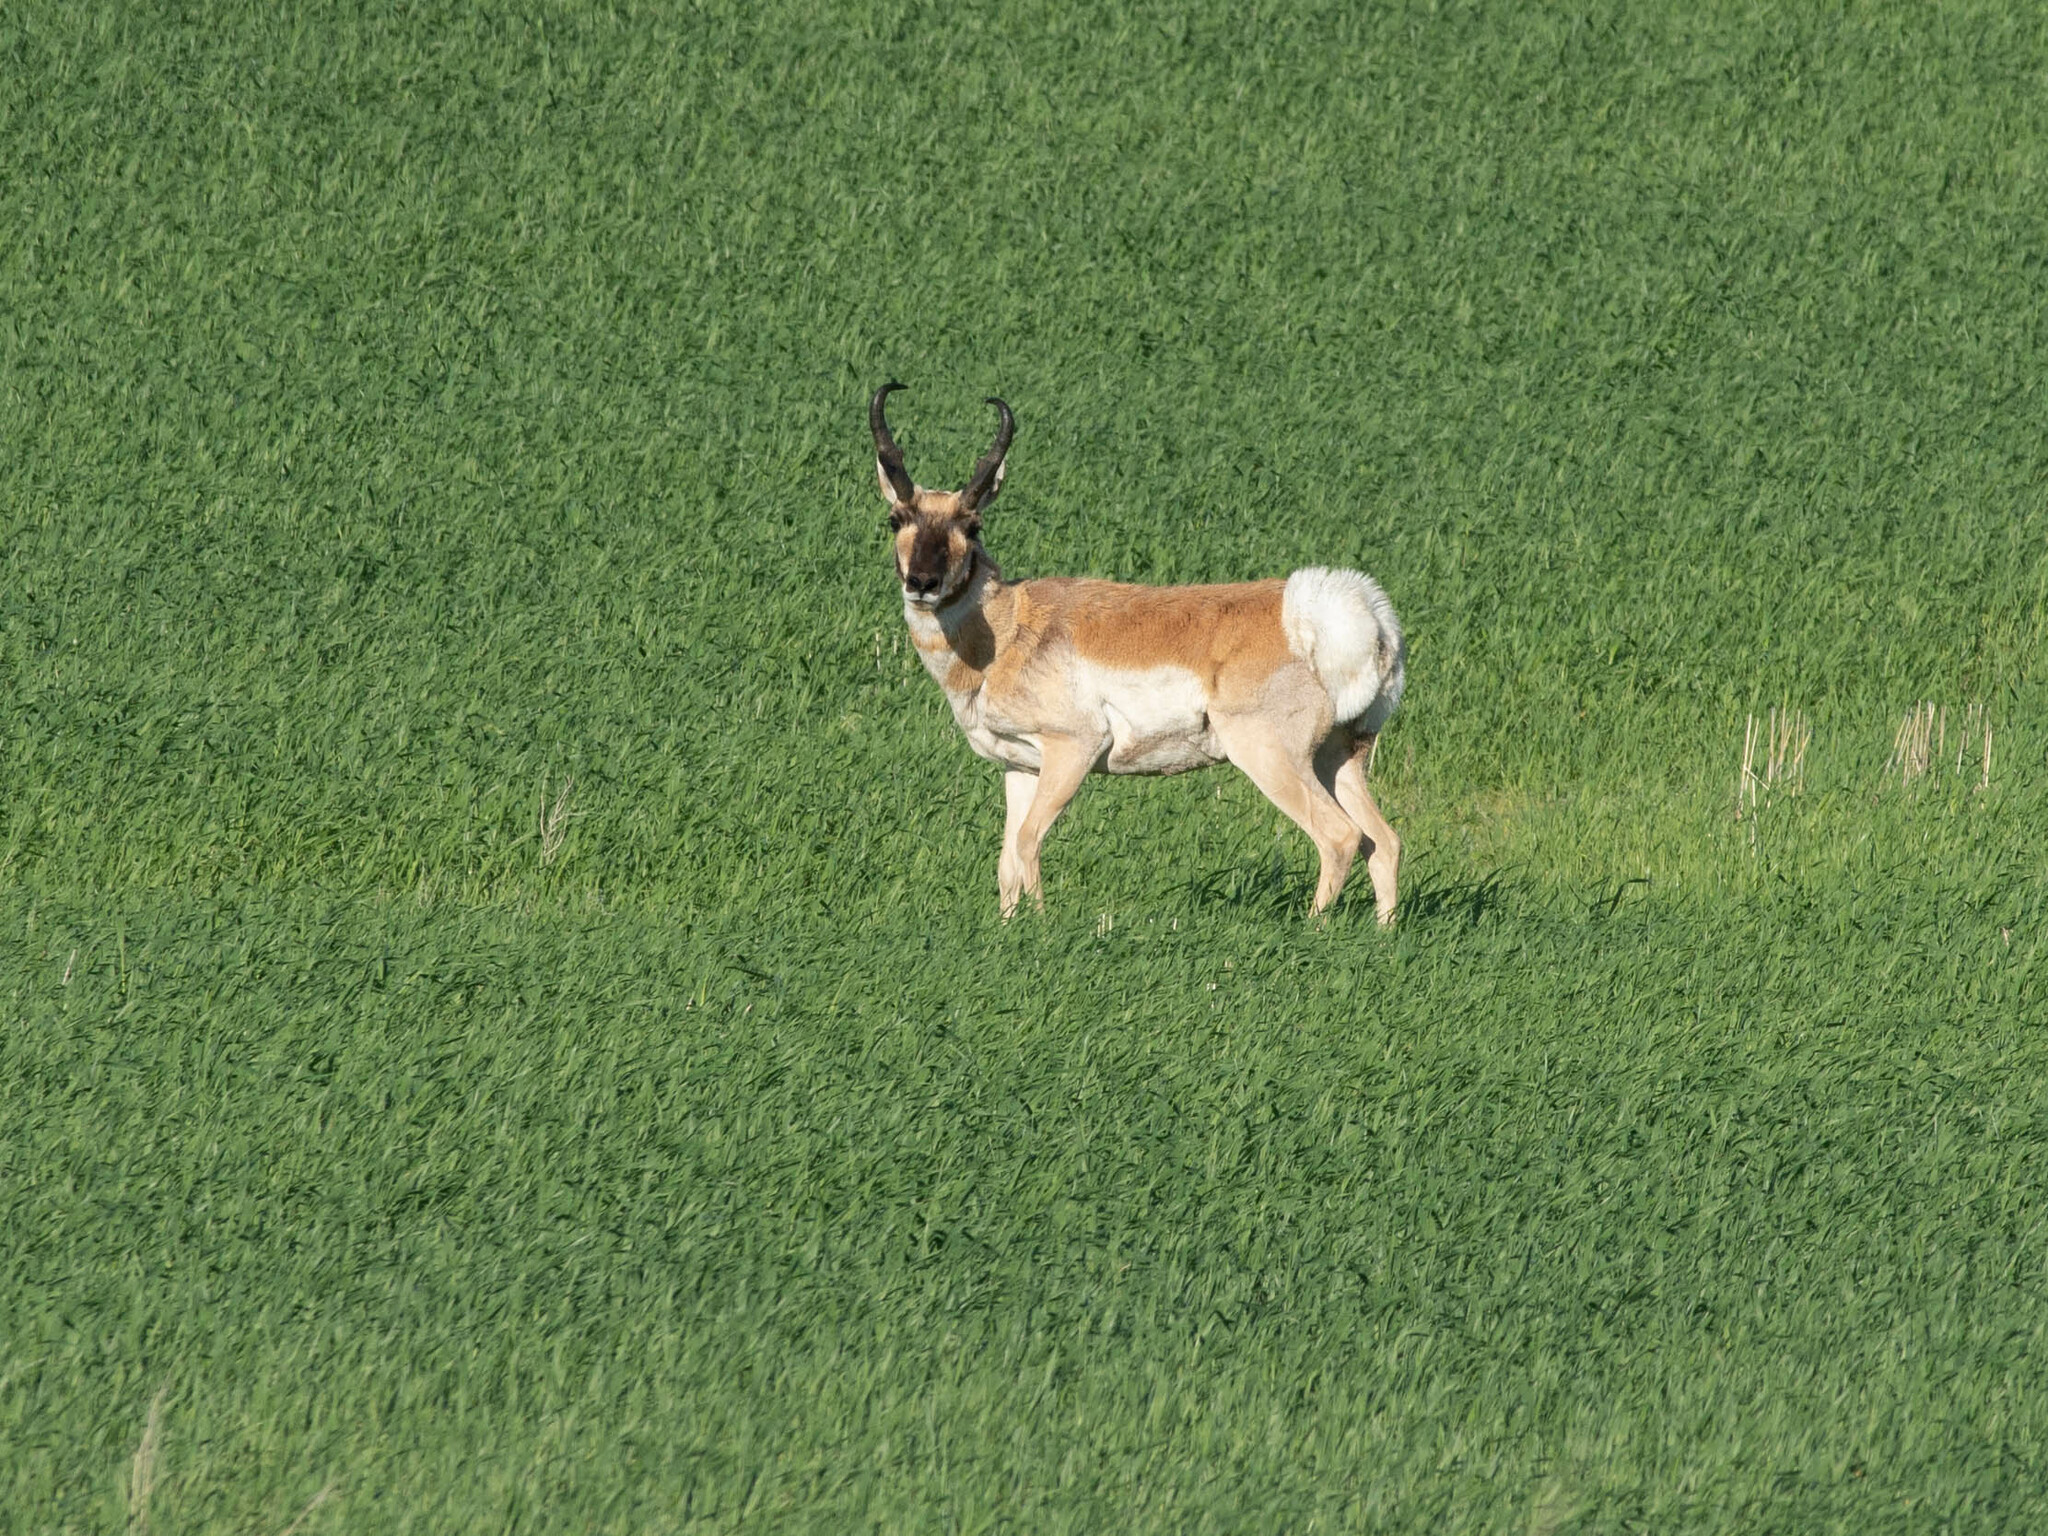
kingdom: Animalia
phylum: Chordata
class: Mammalia
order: Artiodactyla
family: Antilocapridae
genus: Antilocapra
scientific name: Antilocapra americana
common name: Pronghorn
